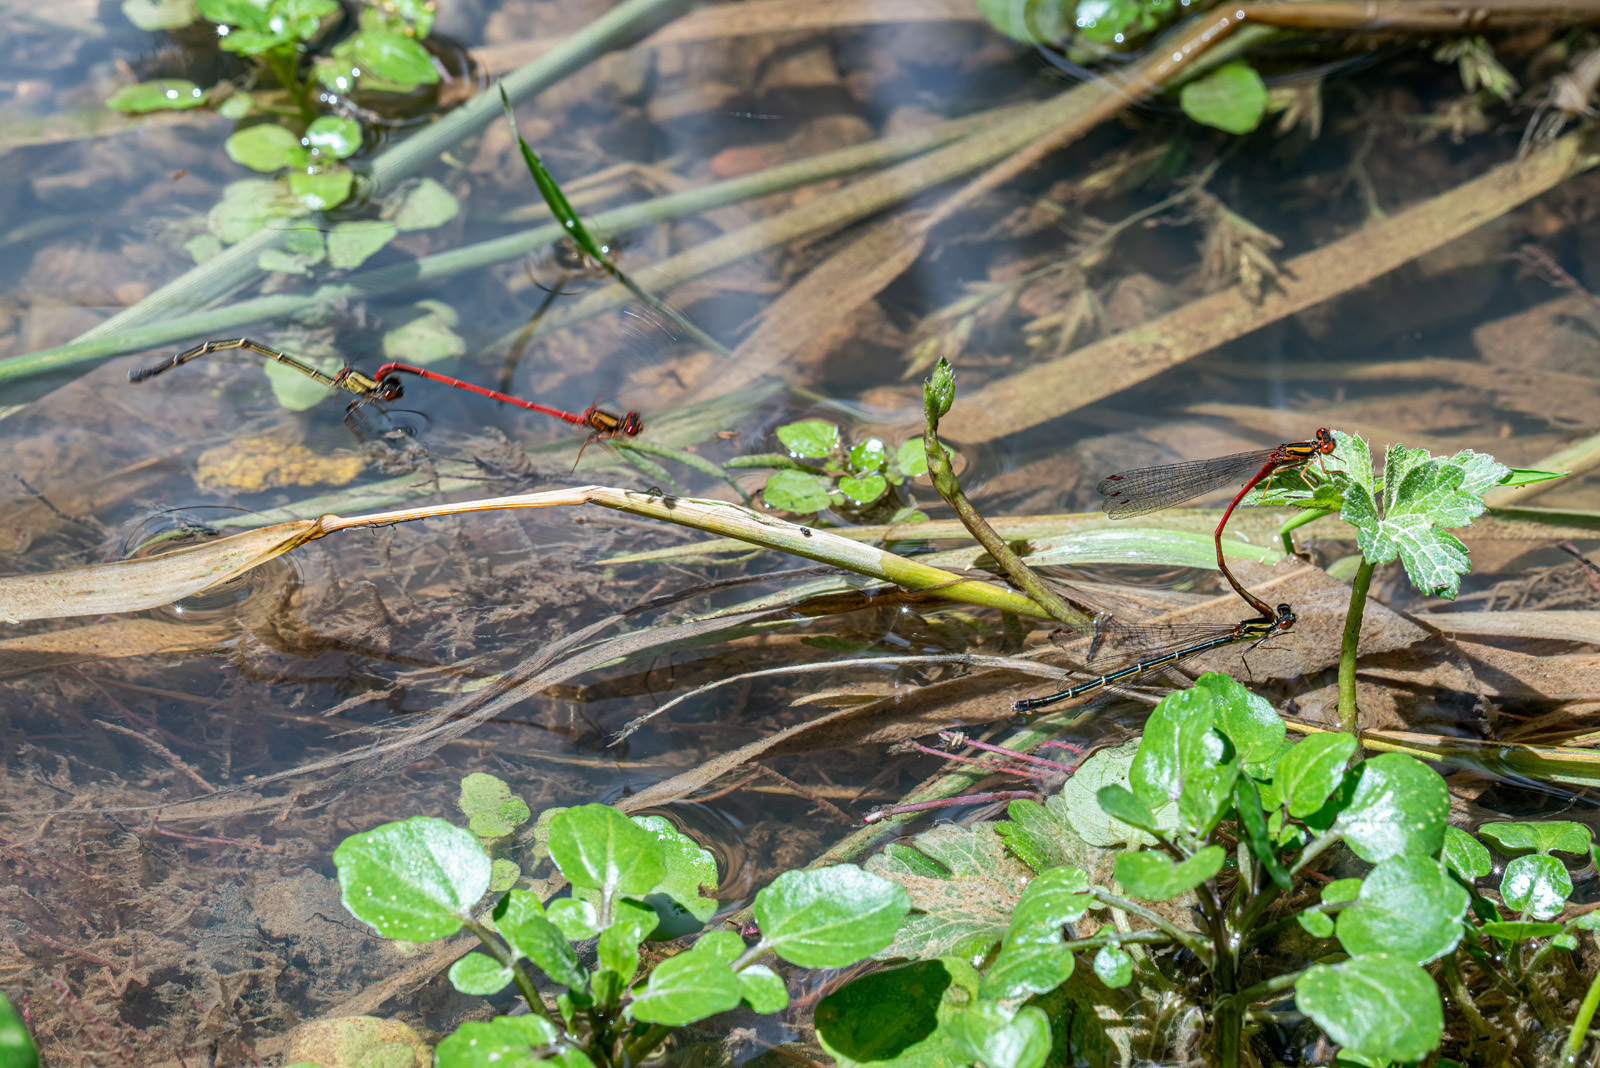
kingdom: Animalia
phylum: Arthropoda
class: Insecta
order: Odonata
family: Coenagrionidae
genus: Xanthocnemis
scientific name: Xanthocnemis zealandica
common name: Common redcoat damselfly
